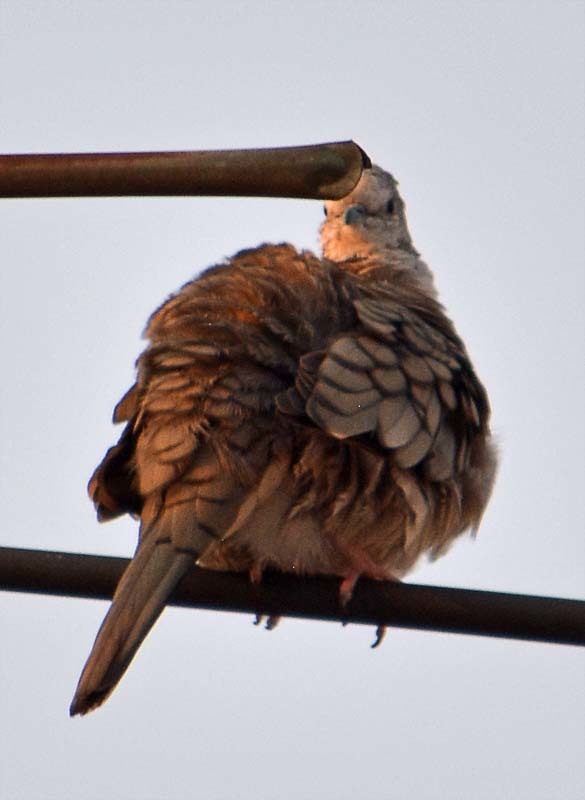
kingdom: Animalia
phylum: Chordata
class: Aves
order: Columbiformes
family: Columbidae
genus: Columbina
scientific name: Columbina inca
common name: Inca dove
